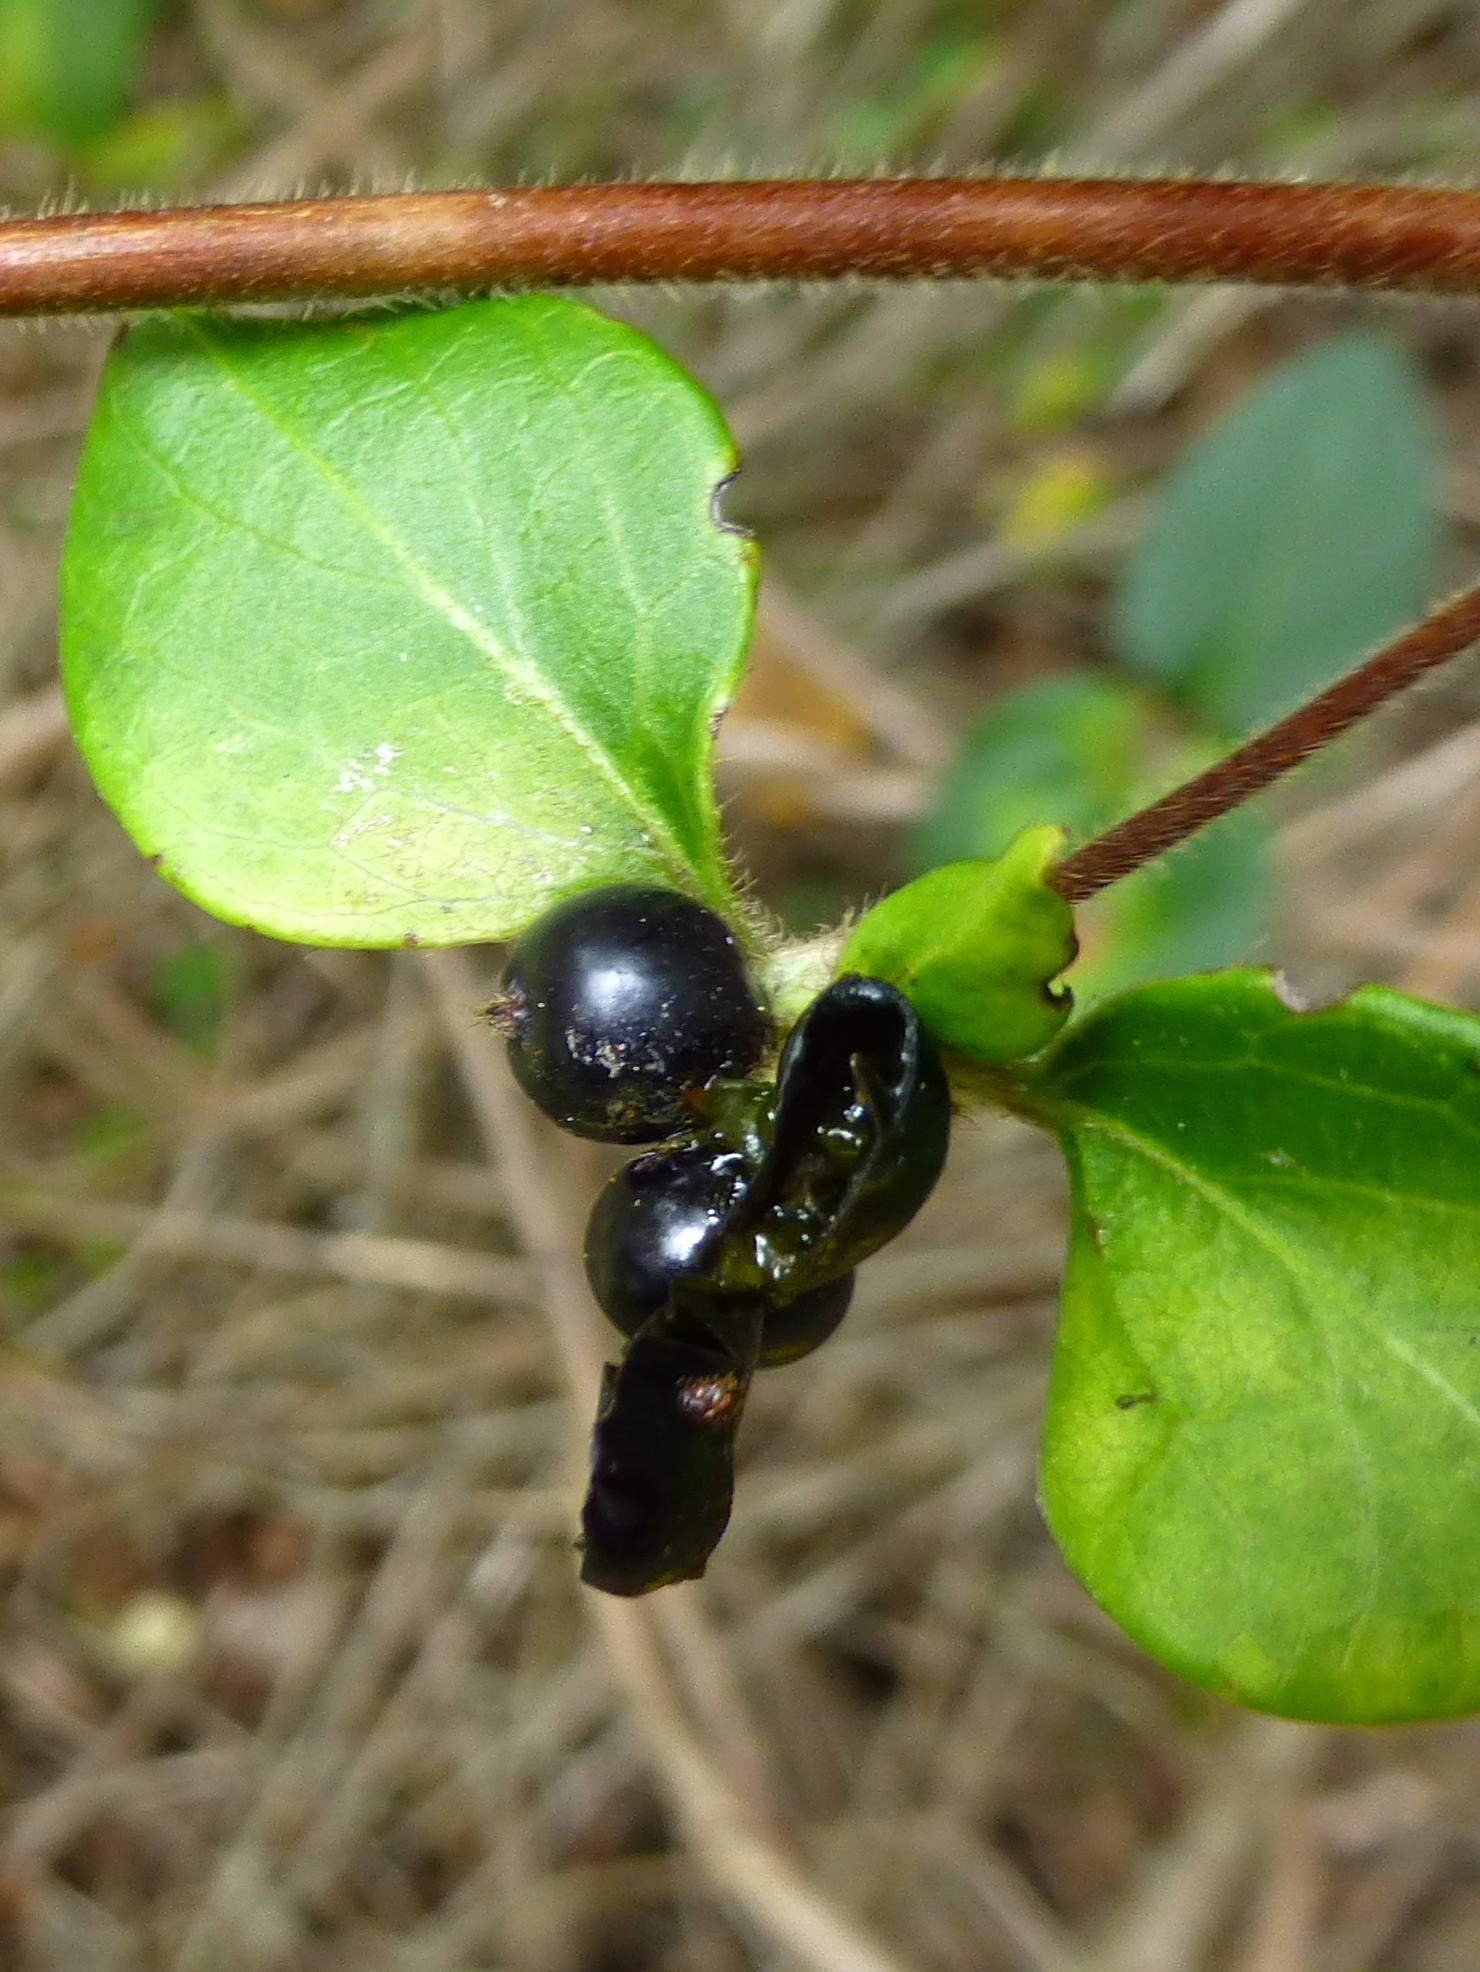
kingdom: Plantae
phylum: Tracheophyta
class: Magnoliopsida
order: Dipsacales
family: Caprifoliaceae
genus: Lonicera
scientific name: Lonicera japonica
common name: Japanese honeysuckle
